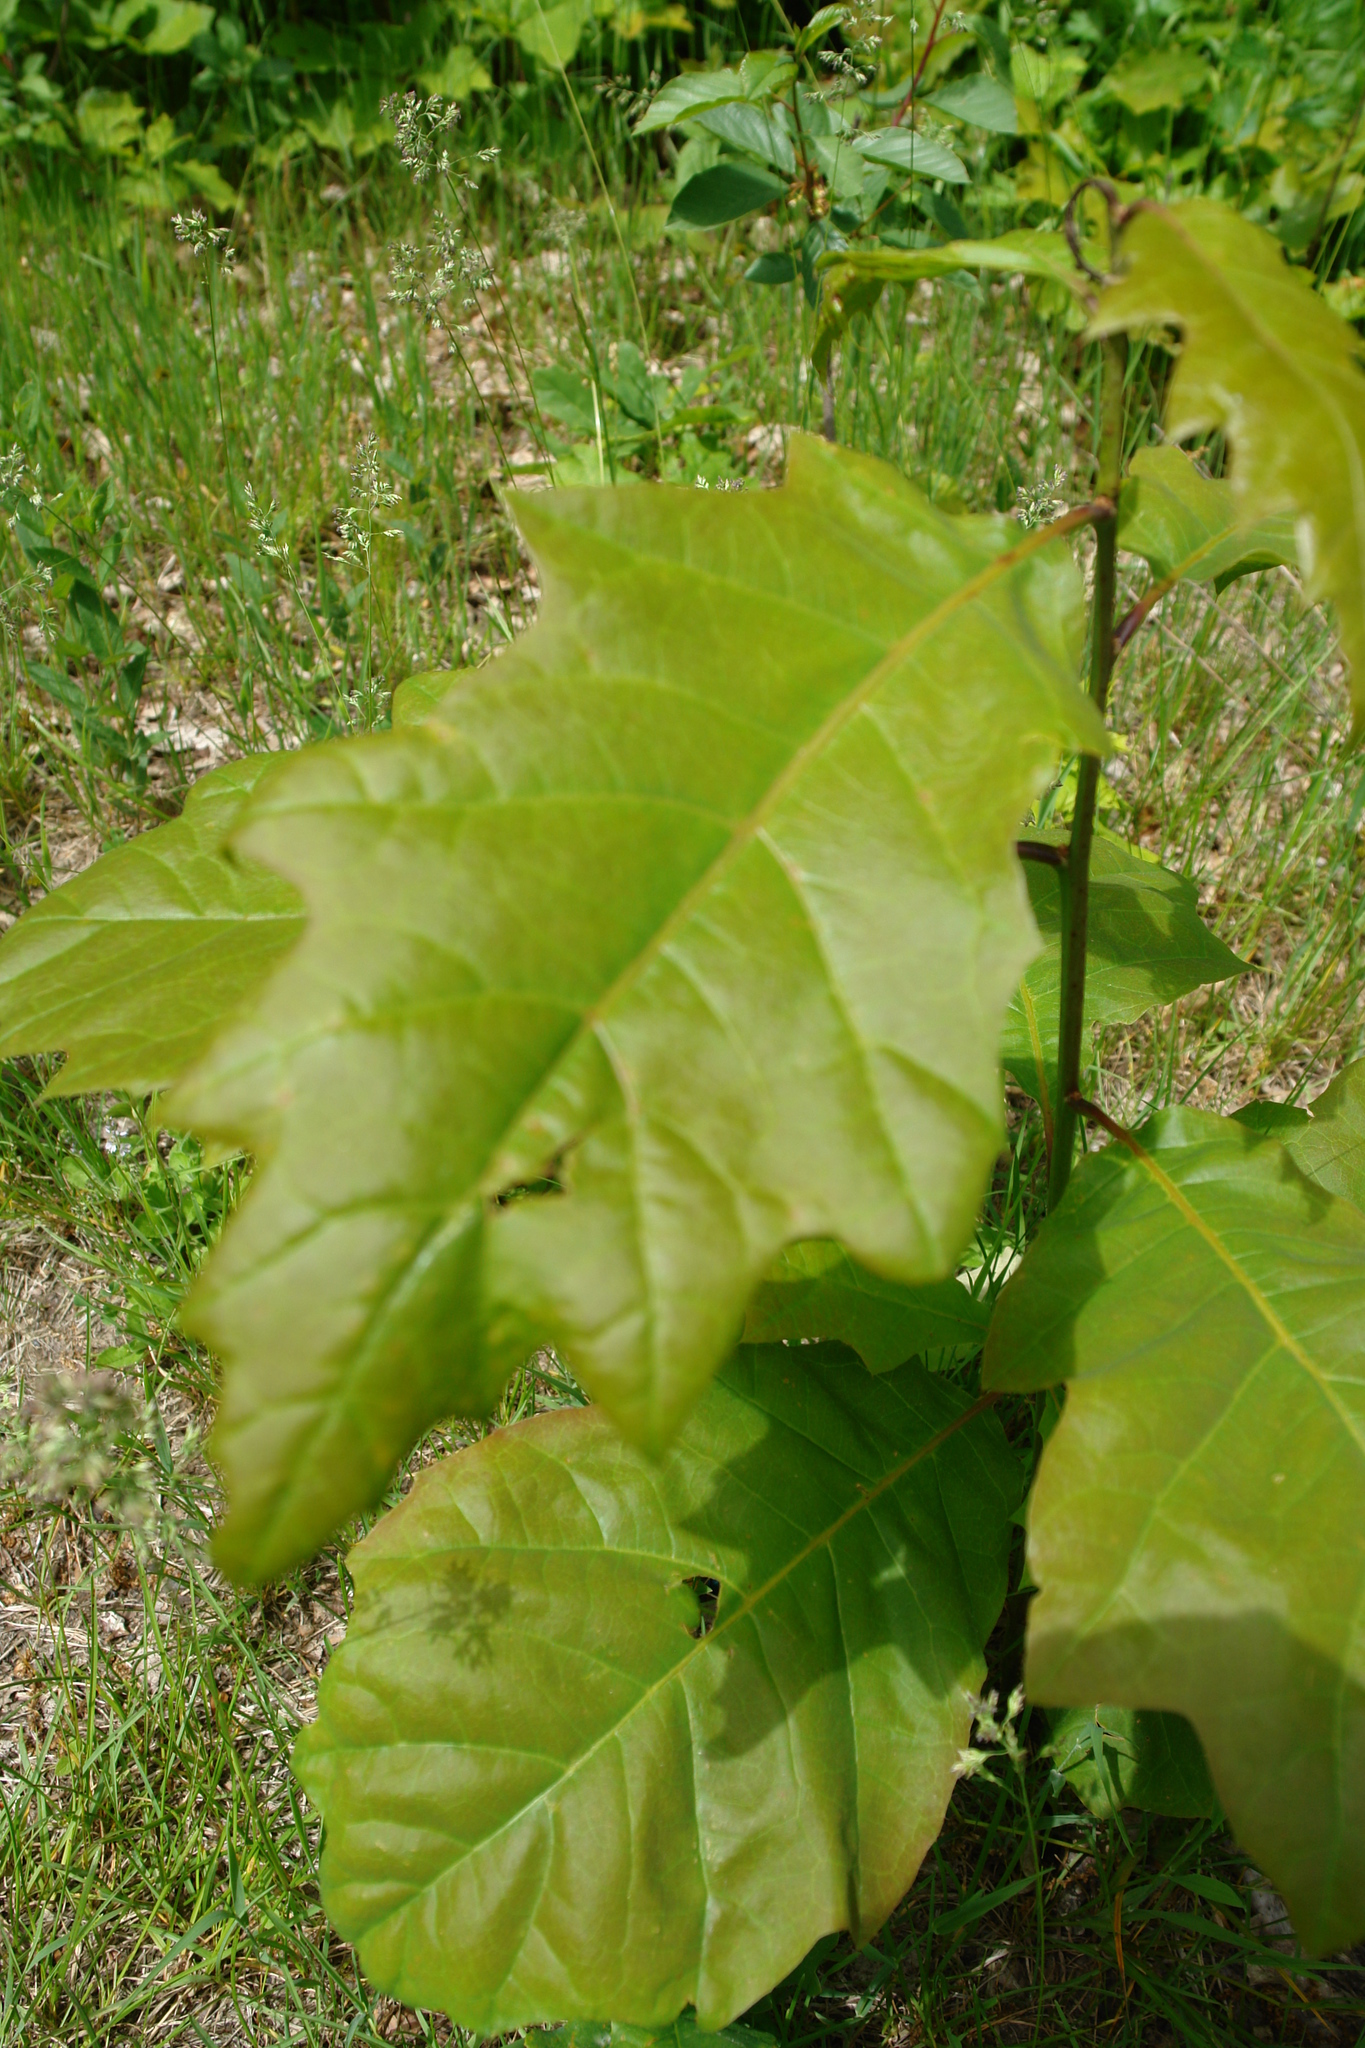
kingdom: Plantae
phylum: Tracheophyta
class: Magnoliopsida
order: Fagales
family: Fagaceae
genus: Quercus
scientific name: Quercus rubra
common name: Red oak
